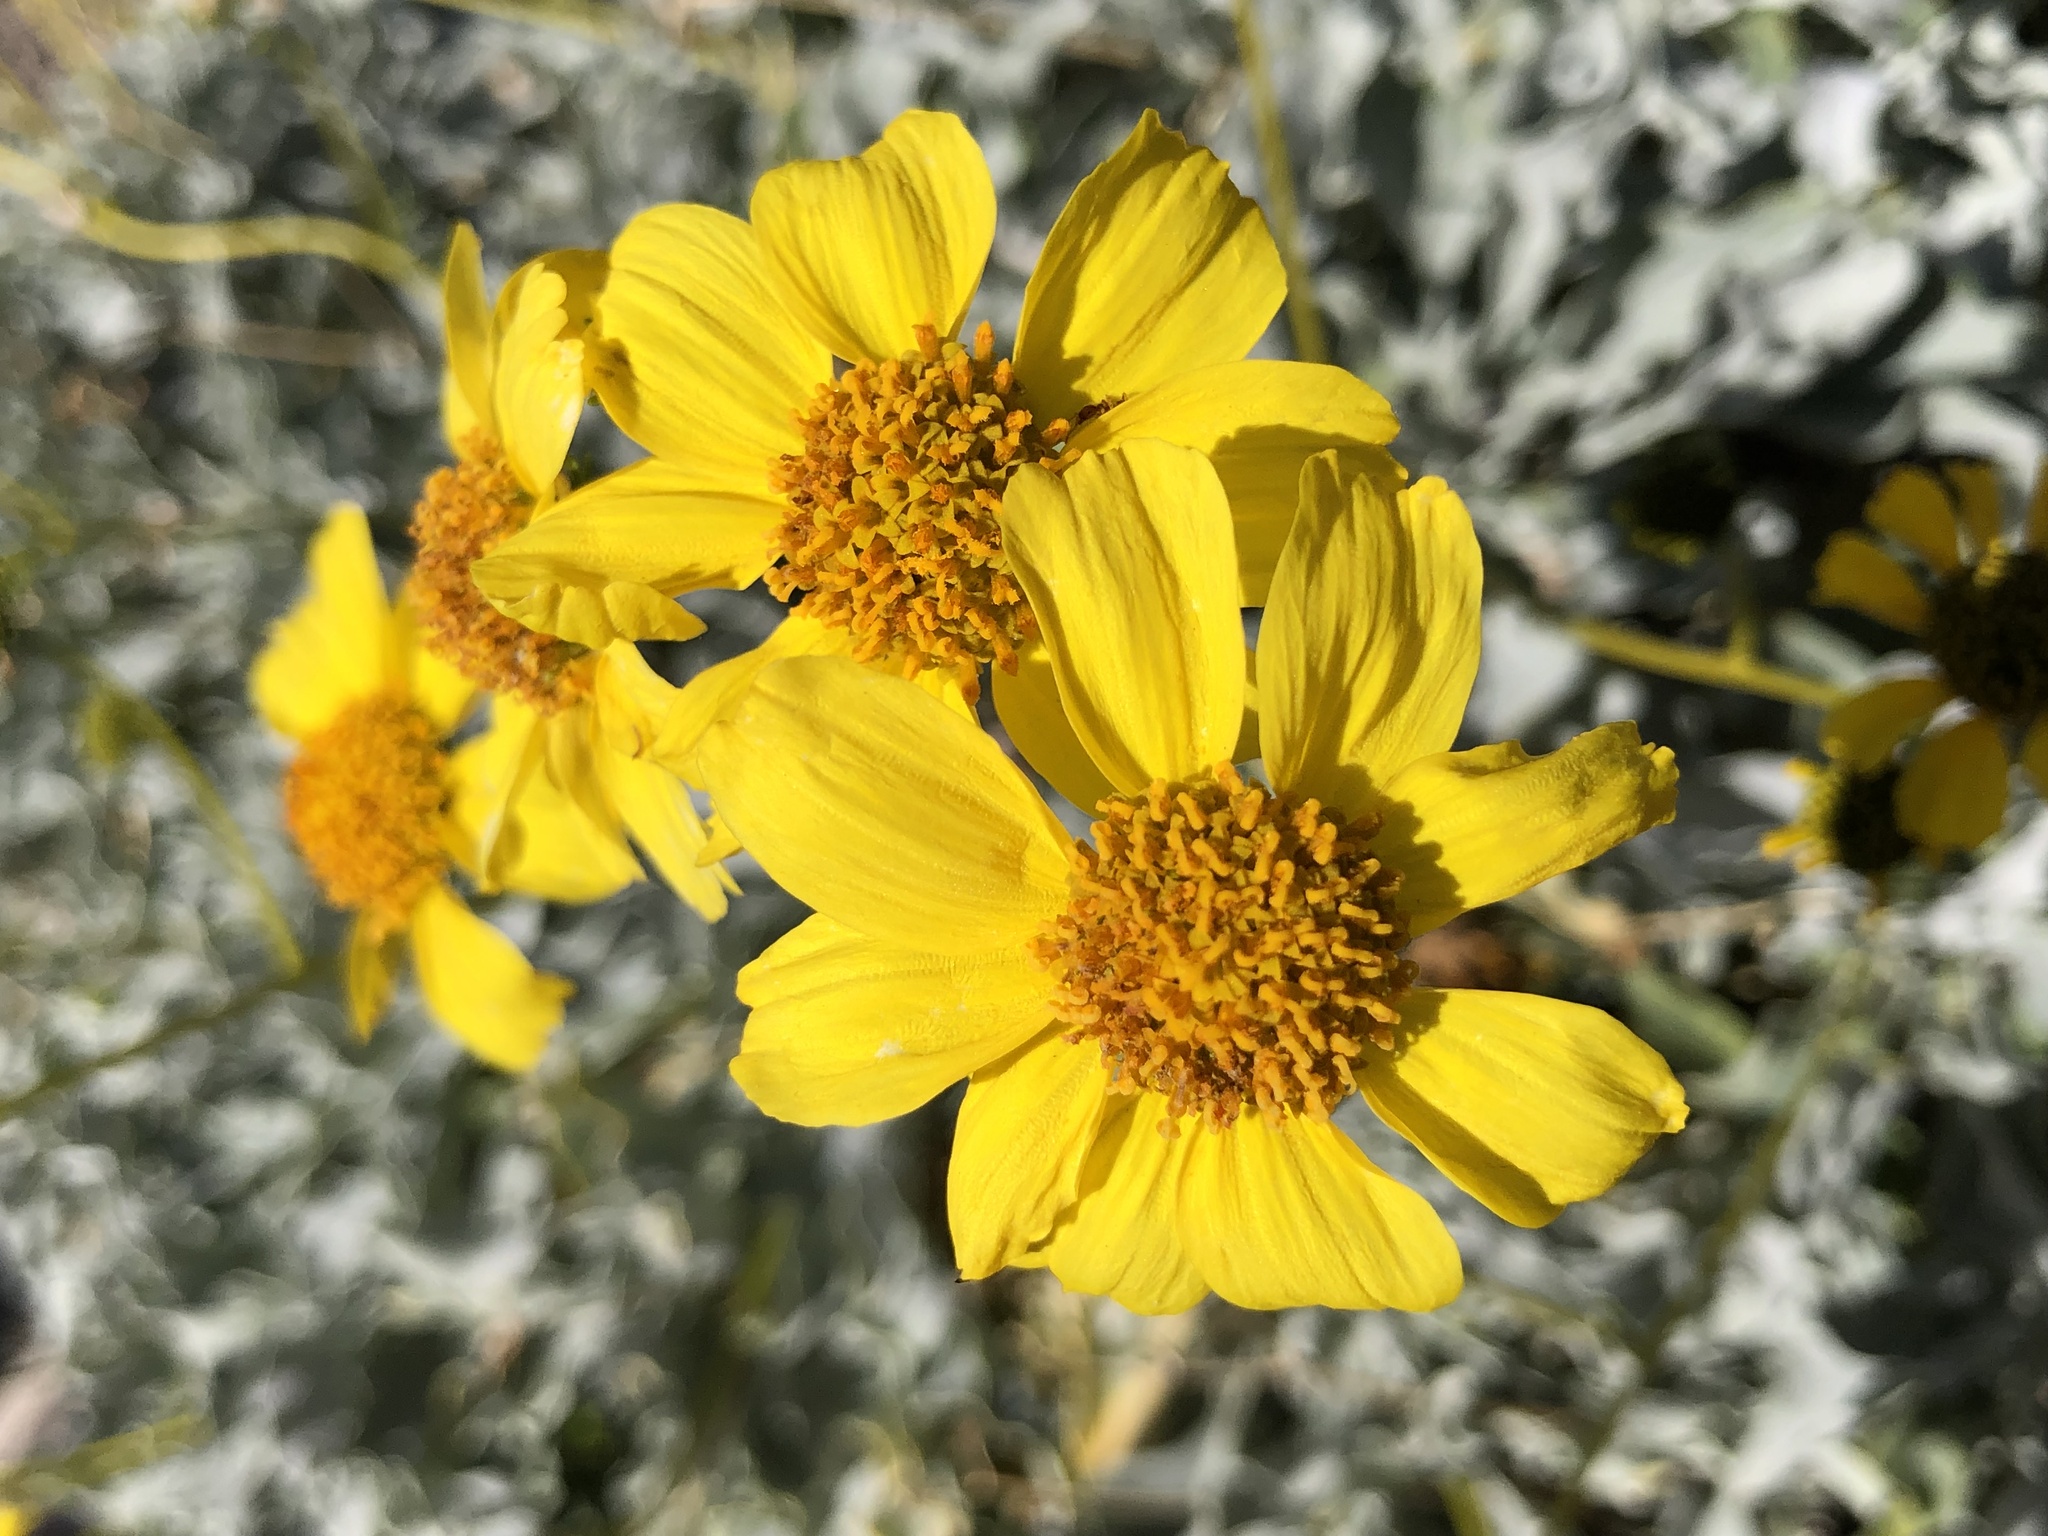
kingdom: Plantae
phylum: Tracheophyta
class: Magnoliopsida
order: Asterales
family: Asteraceae
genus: Encelia
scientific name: Encelia farinosa
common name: Brittlebush
